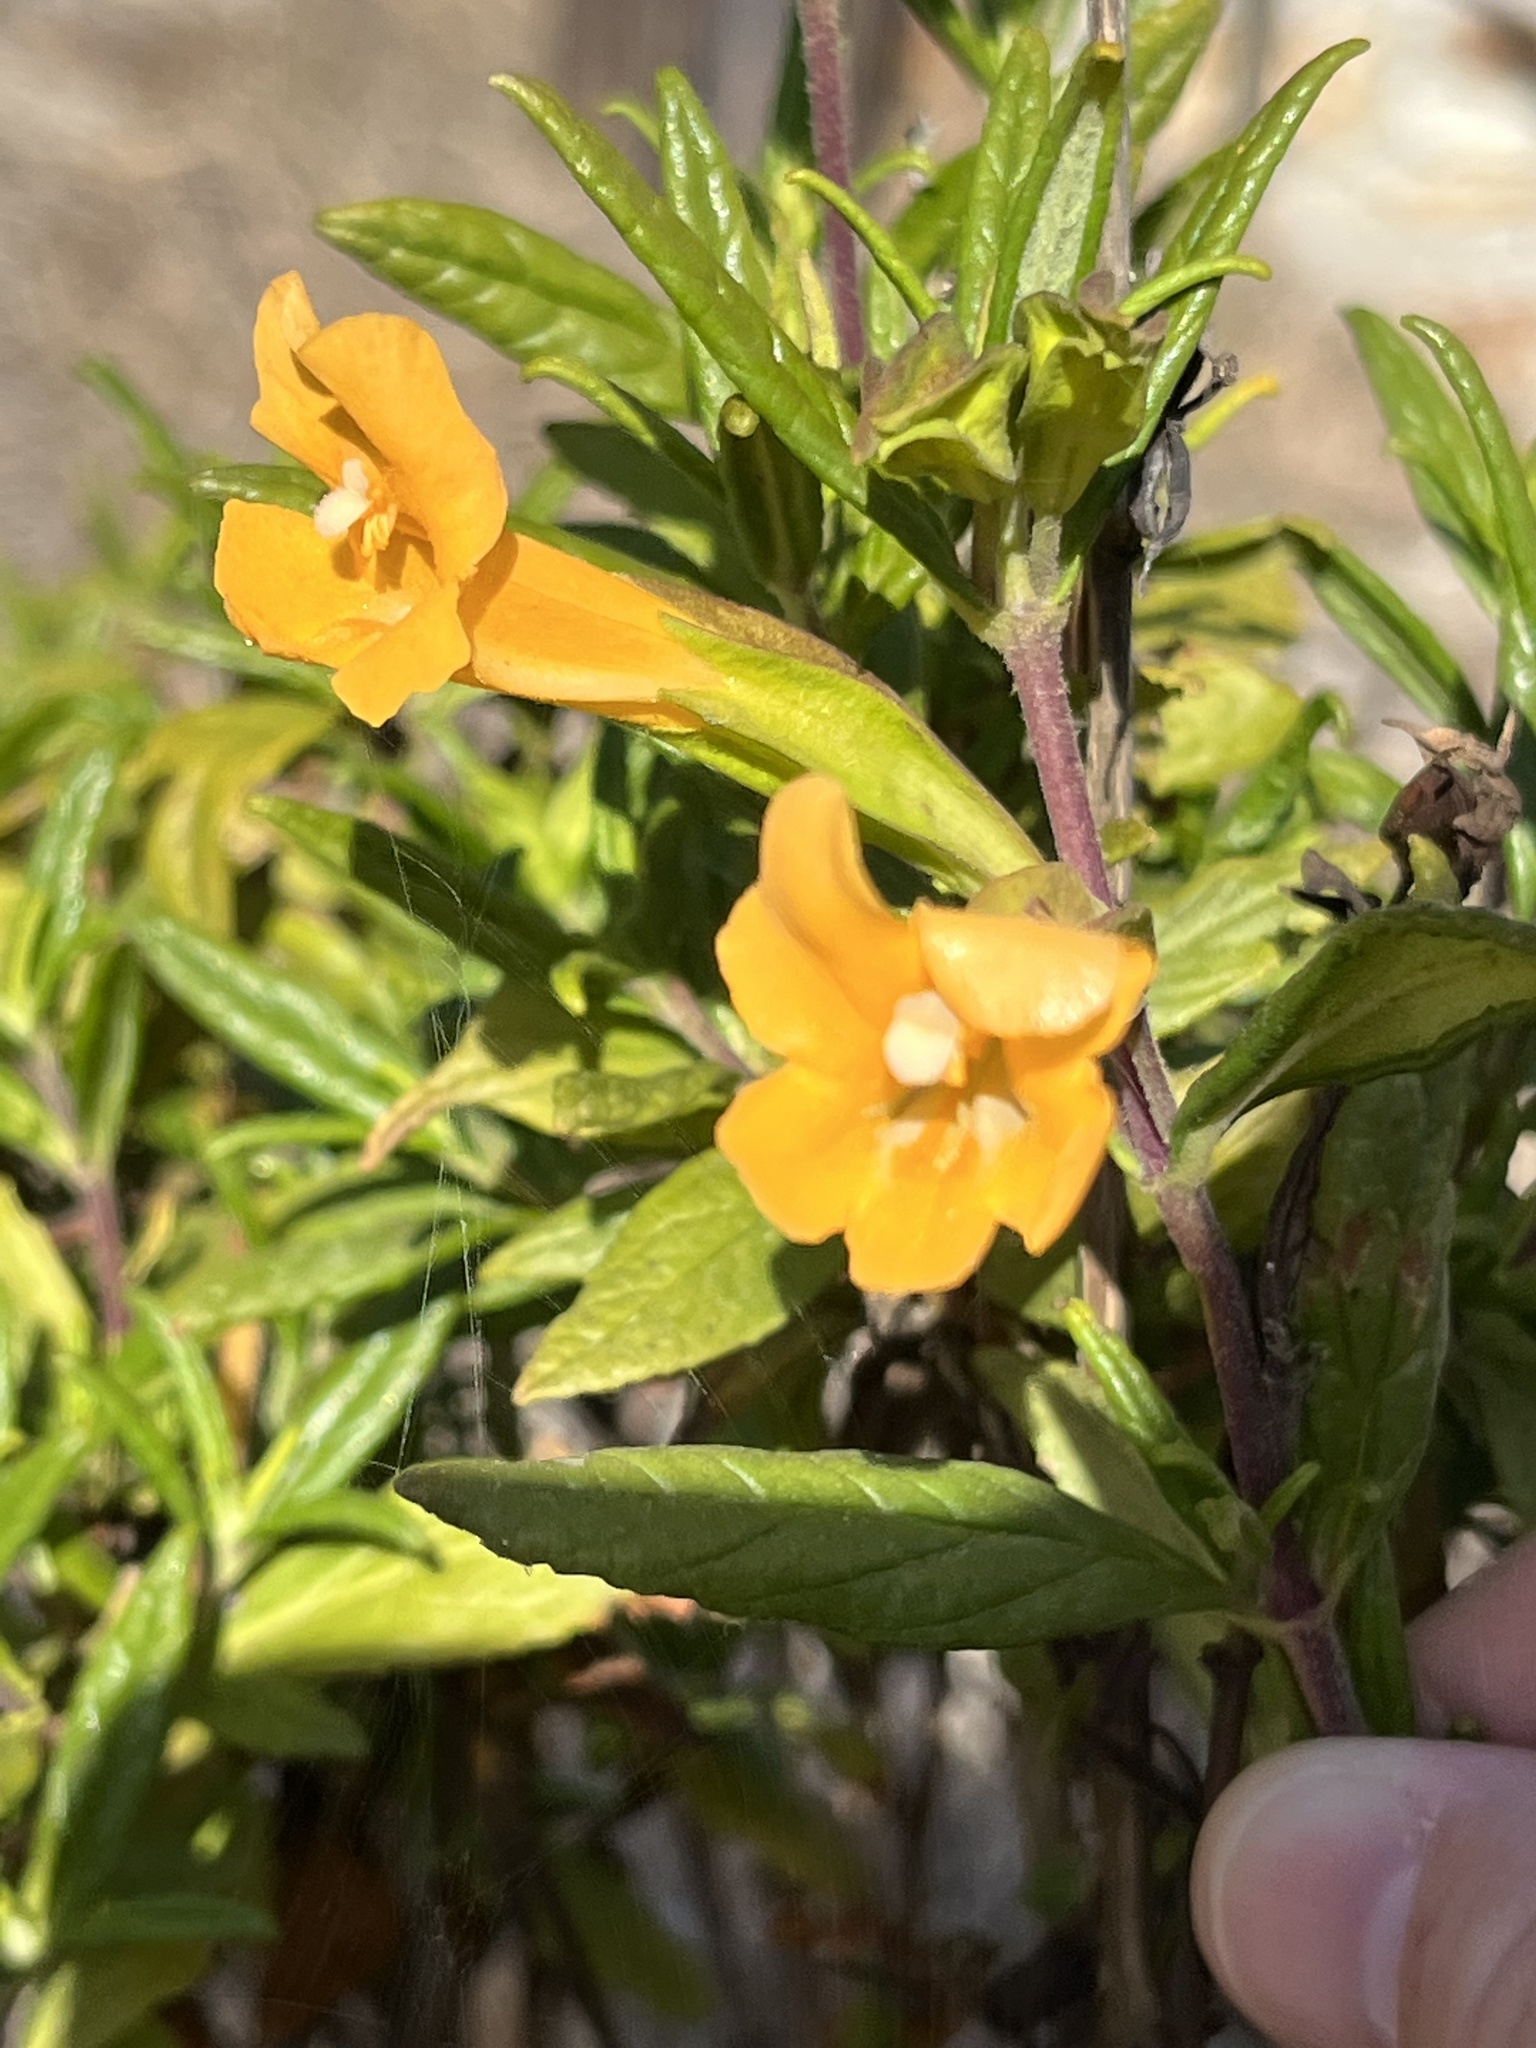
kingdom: Plantae
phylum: Tracheophyta
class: Magnoliopsida
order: Lamiales
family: Phrymaceae
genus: Diplacus
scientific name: Diplacus aurantiacus
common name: Bush monkey-flower
